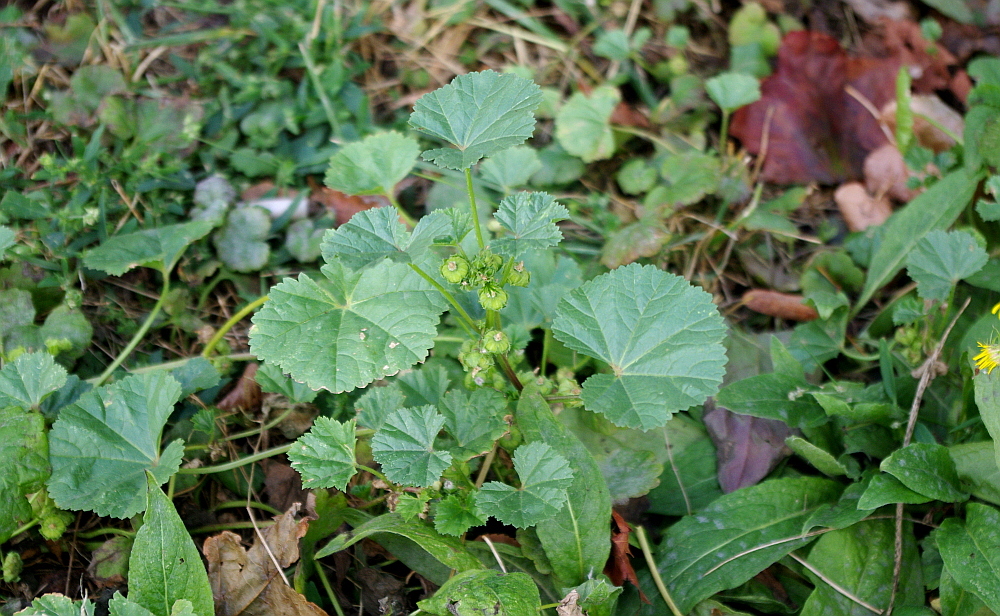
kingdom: Plantae
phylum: Tracheophyta
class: Magnoliopsida
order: Malvales
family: Malvaceae
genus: Malva
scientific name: Malva pusilla
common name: Small mallow
